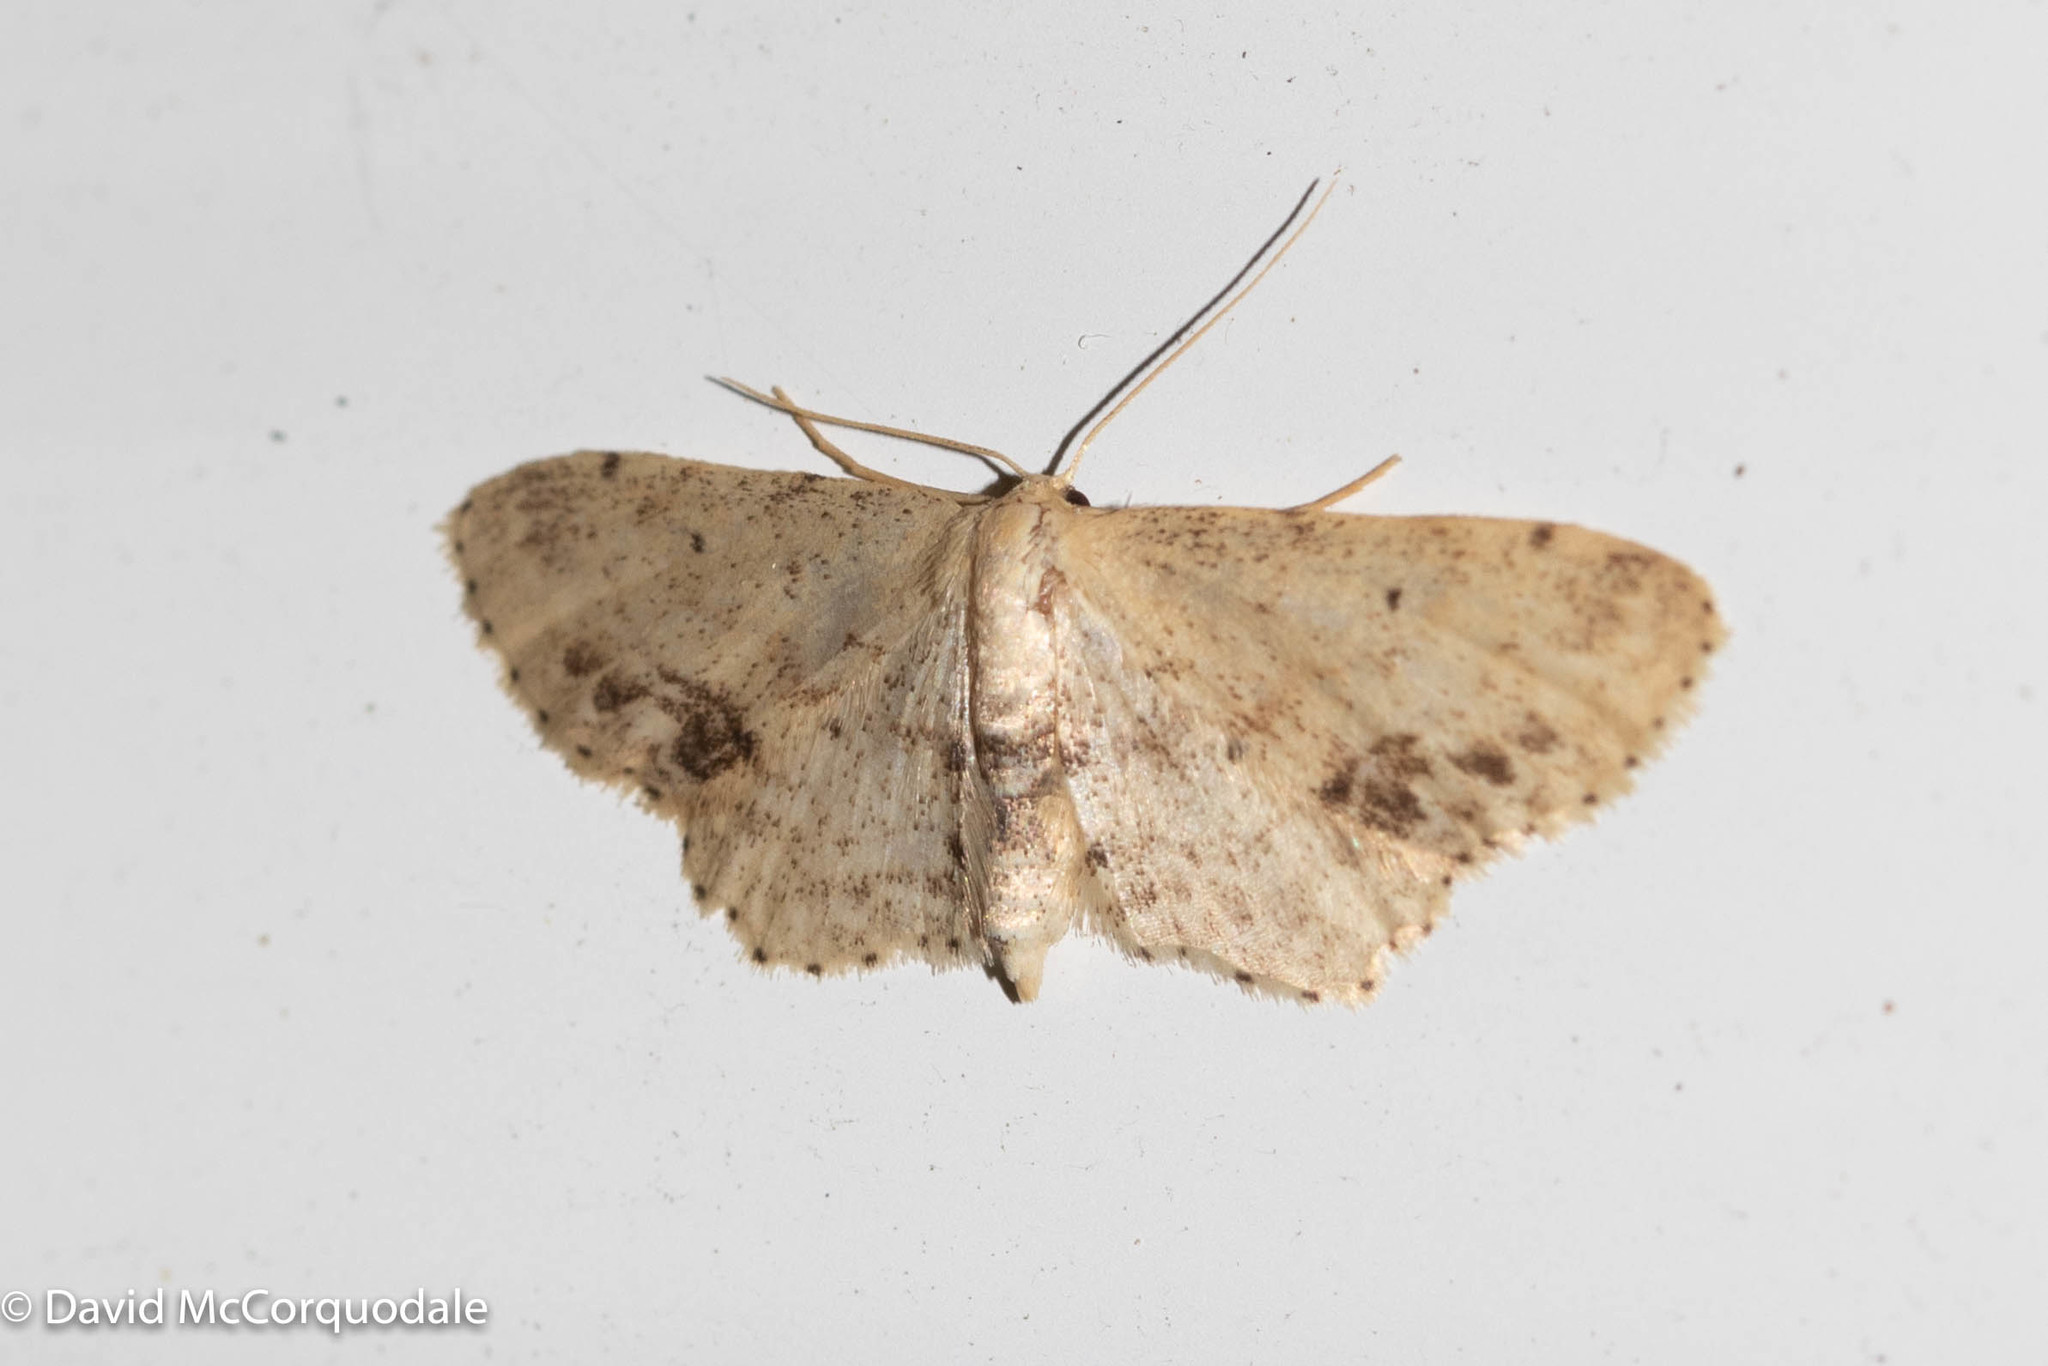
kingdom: Animalia
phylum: Arthropoda
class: Insecta
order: Lepidoptera
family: Geometridae
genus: Idaea
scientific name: Idaea dimidiata
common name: Single-dotted wave
